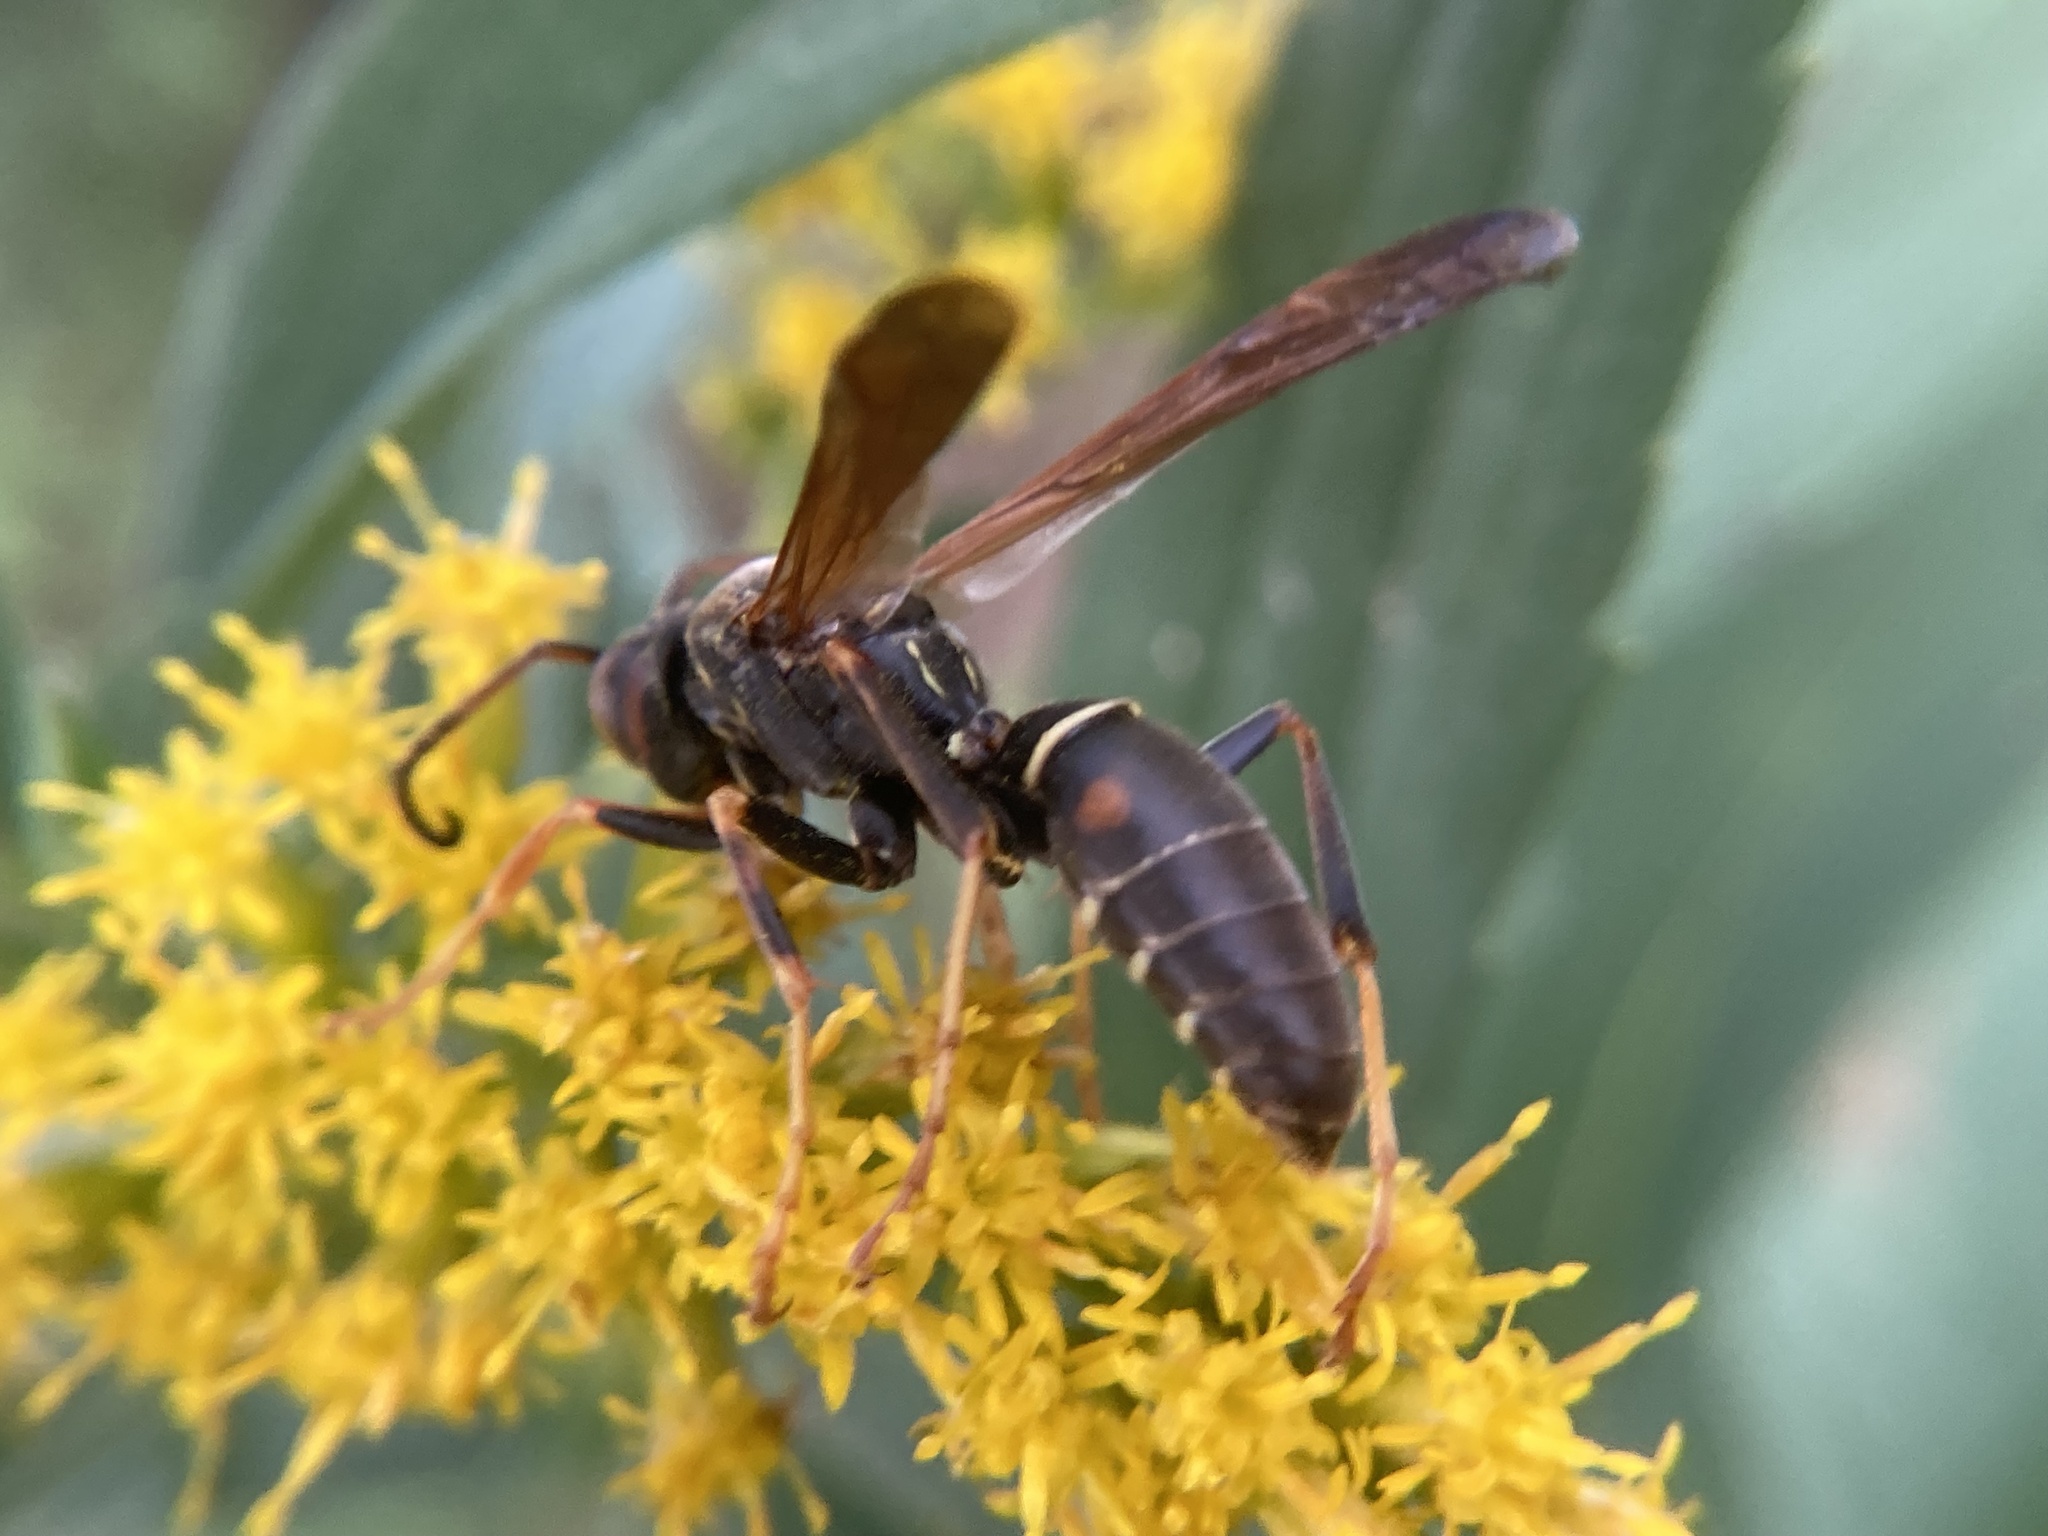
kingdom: Animalia
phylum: Arthropoda
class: Insecta
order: Hymenoptera
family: Eumenidae
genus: Polistes
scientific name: Polistes fuscatus
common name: Dark paper wasp
